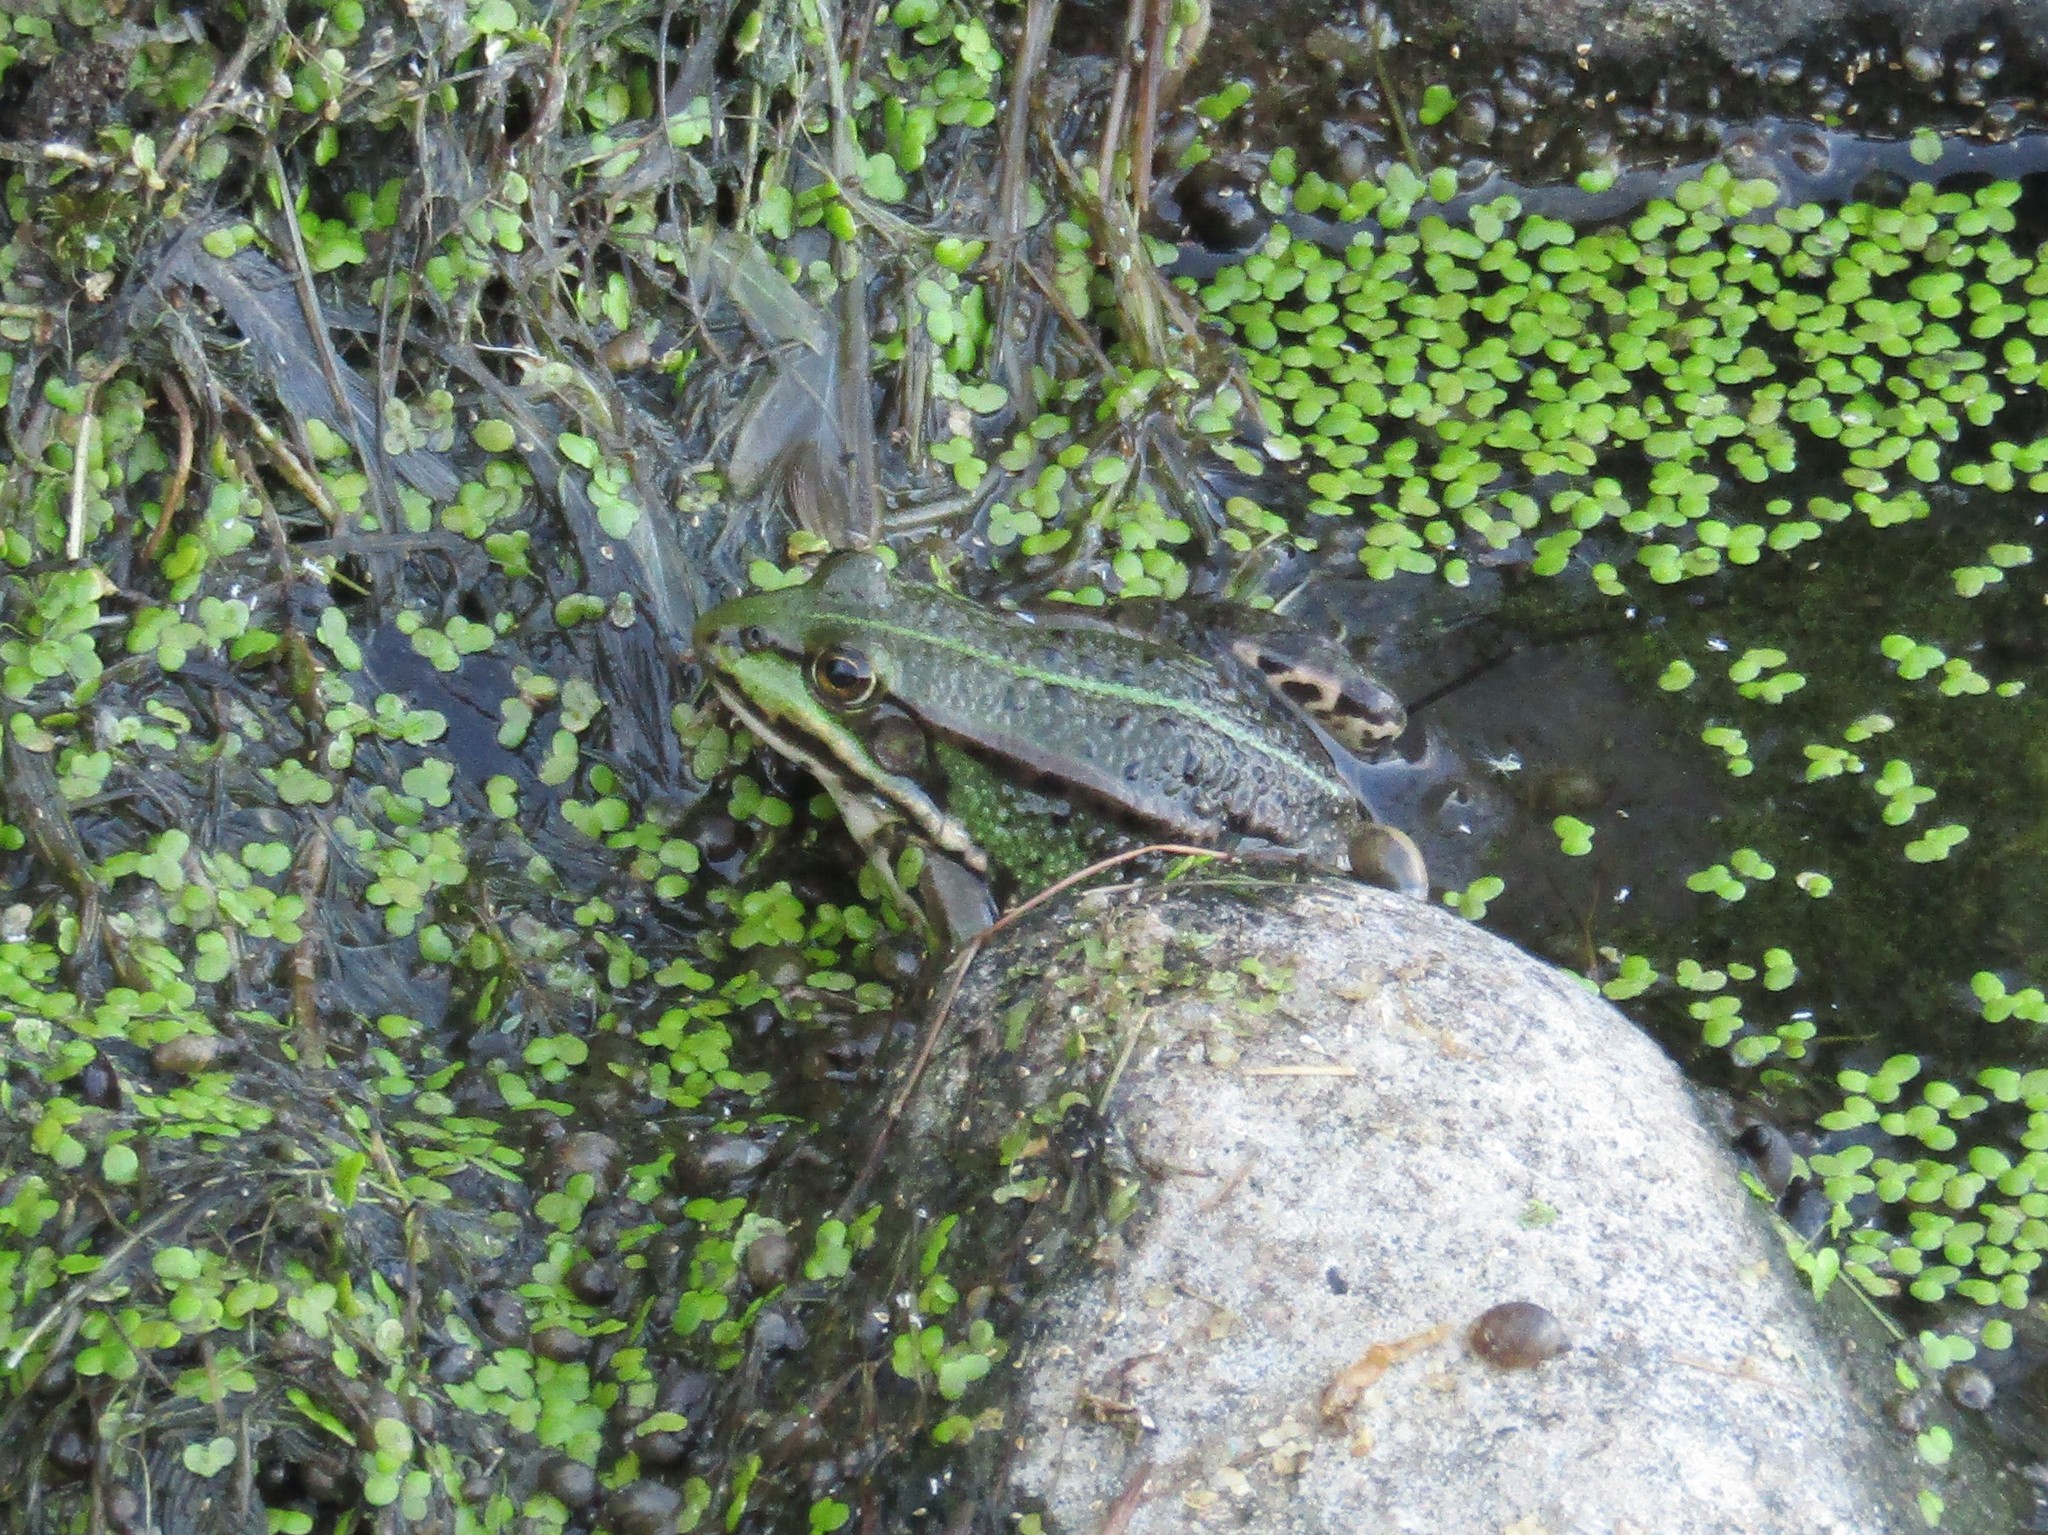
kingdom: Animalia
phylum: Chordata
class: Amphibia
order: Anura
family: Ranidae
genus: Pelophylax
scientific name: Pelophylax lessonae
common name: Pool frog
